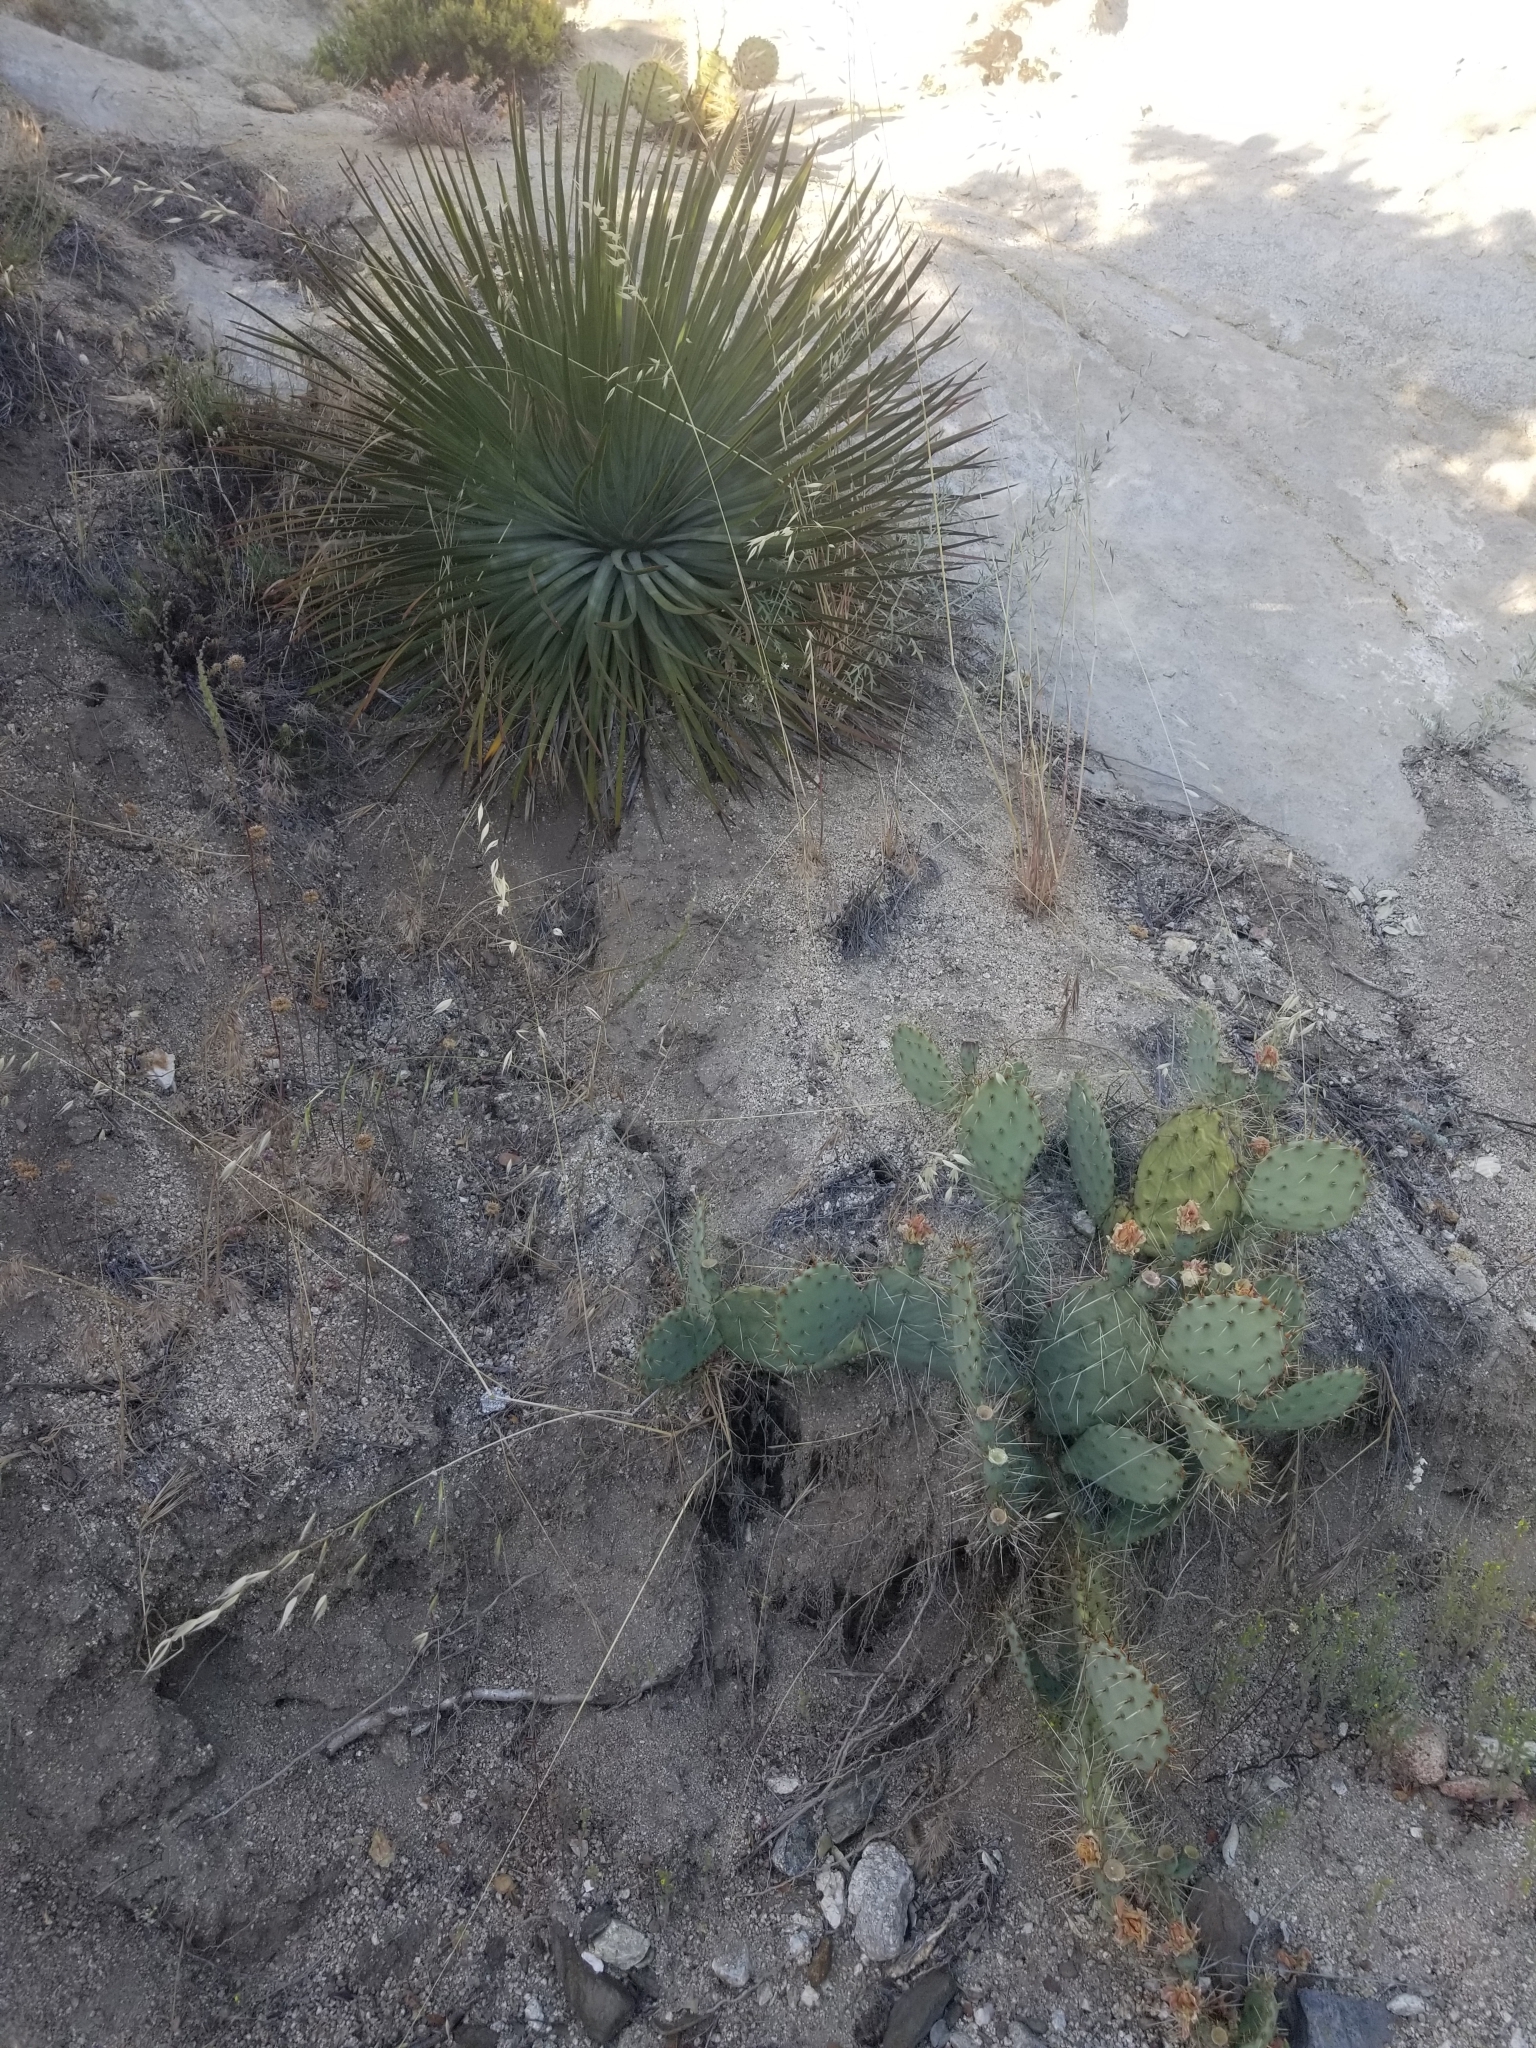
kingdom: Plantae
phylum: Tracheophyta
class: Liliopsida
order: Asparagales
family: Asparagaceae
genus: Hesperoyucca
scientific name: Hesperoyucca whipplei
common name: Our lord's-candle
